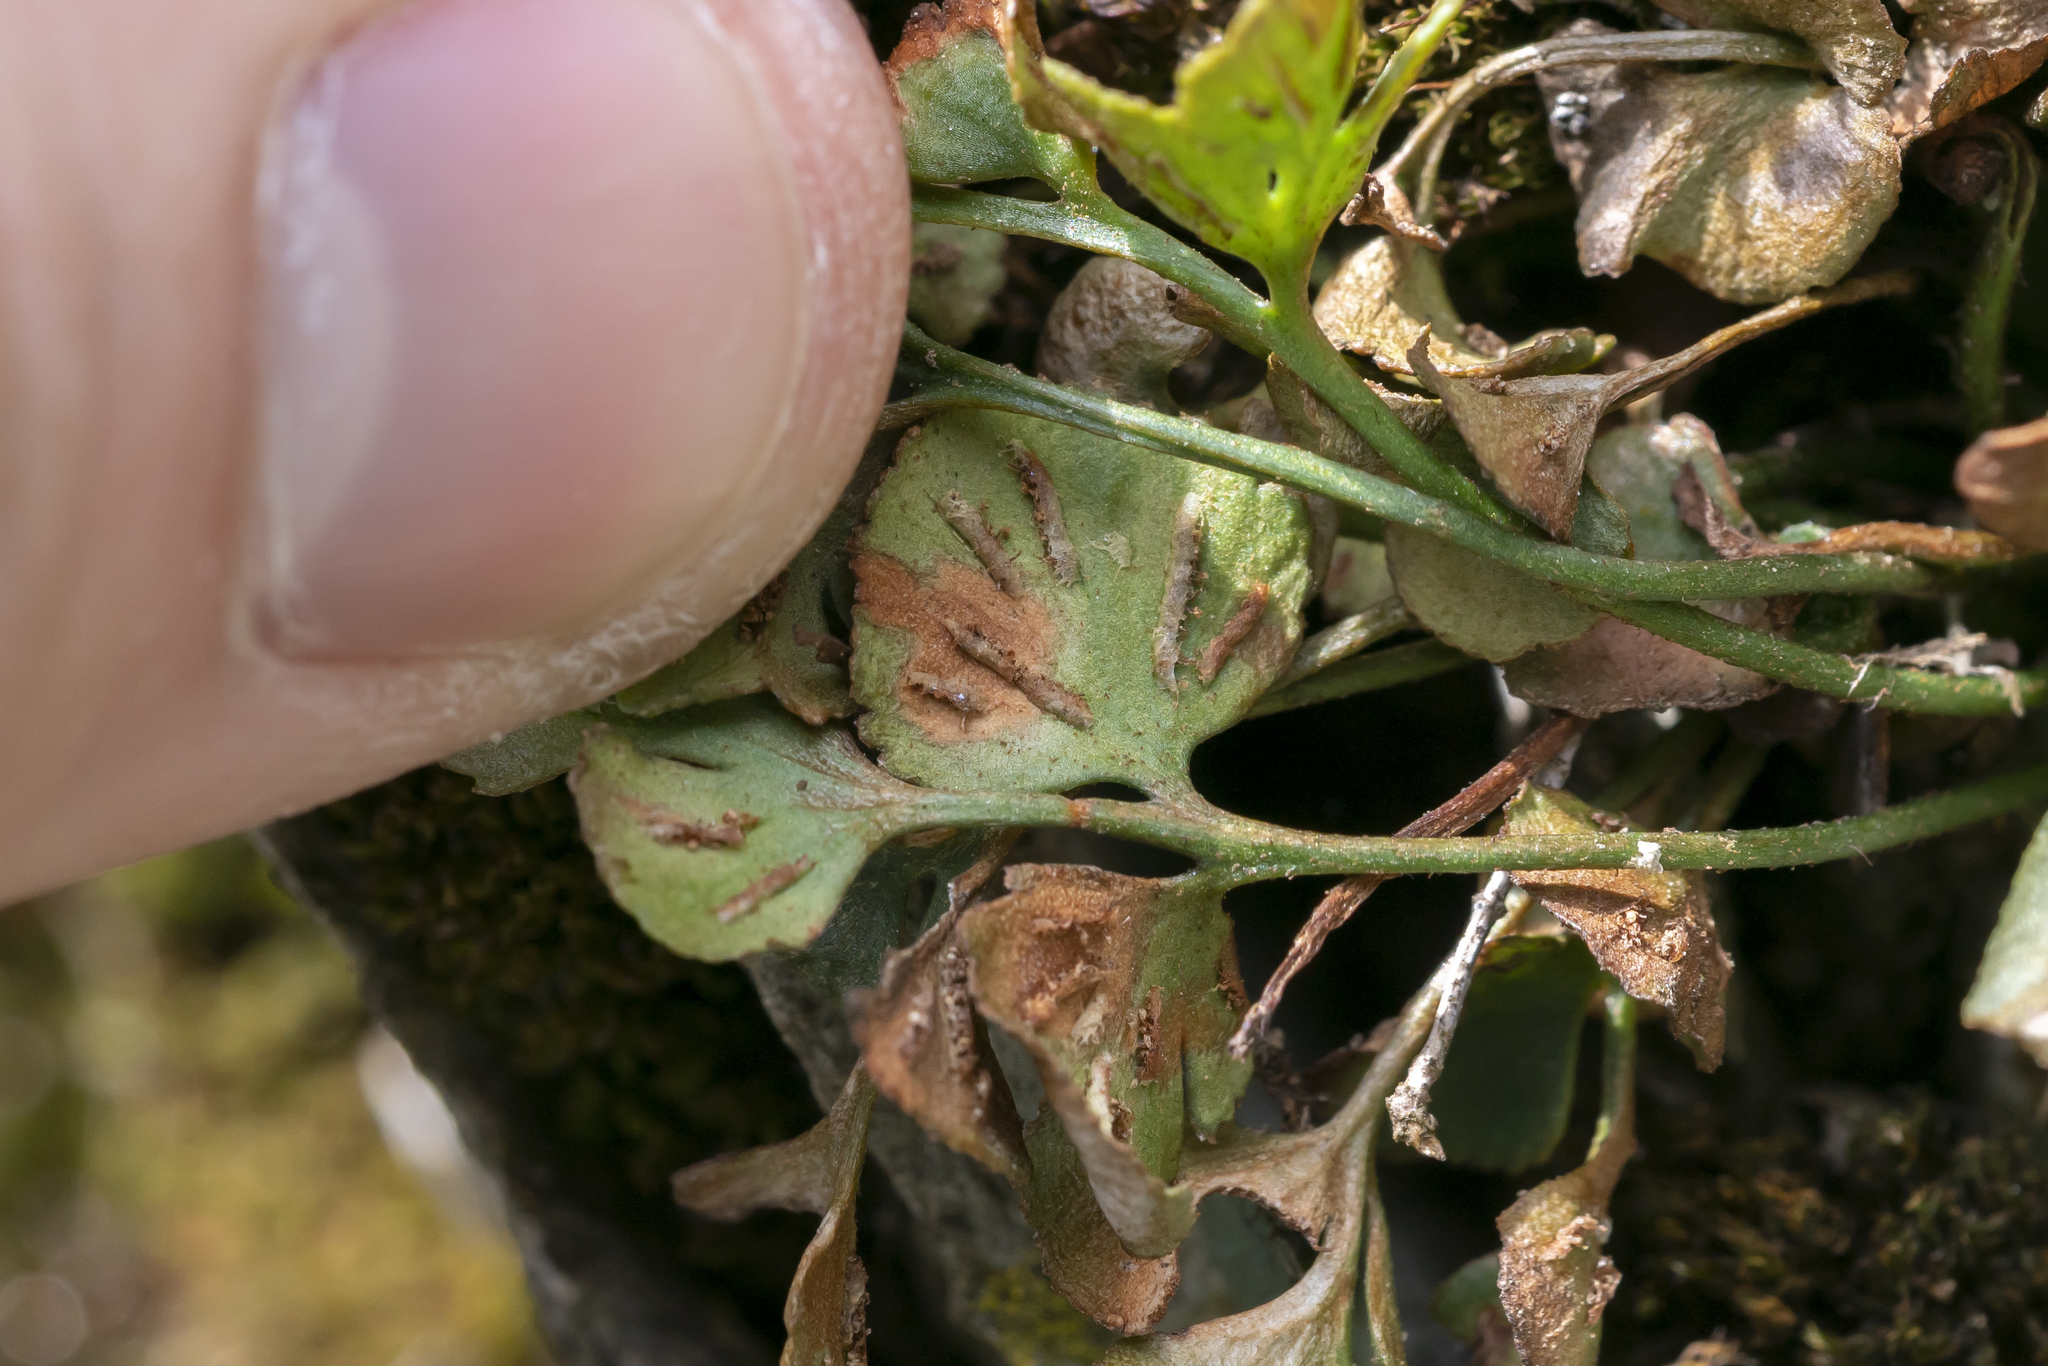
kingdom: Plantae
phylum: Tracheophyta
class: Polypodiopsida
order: Polypodiales
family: Aspleniaceae
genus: Asplenium
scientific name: Asplenium ruta-muraria
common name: Wall-rue
